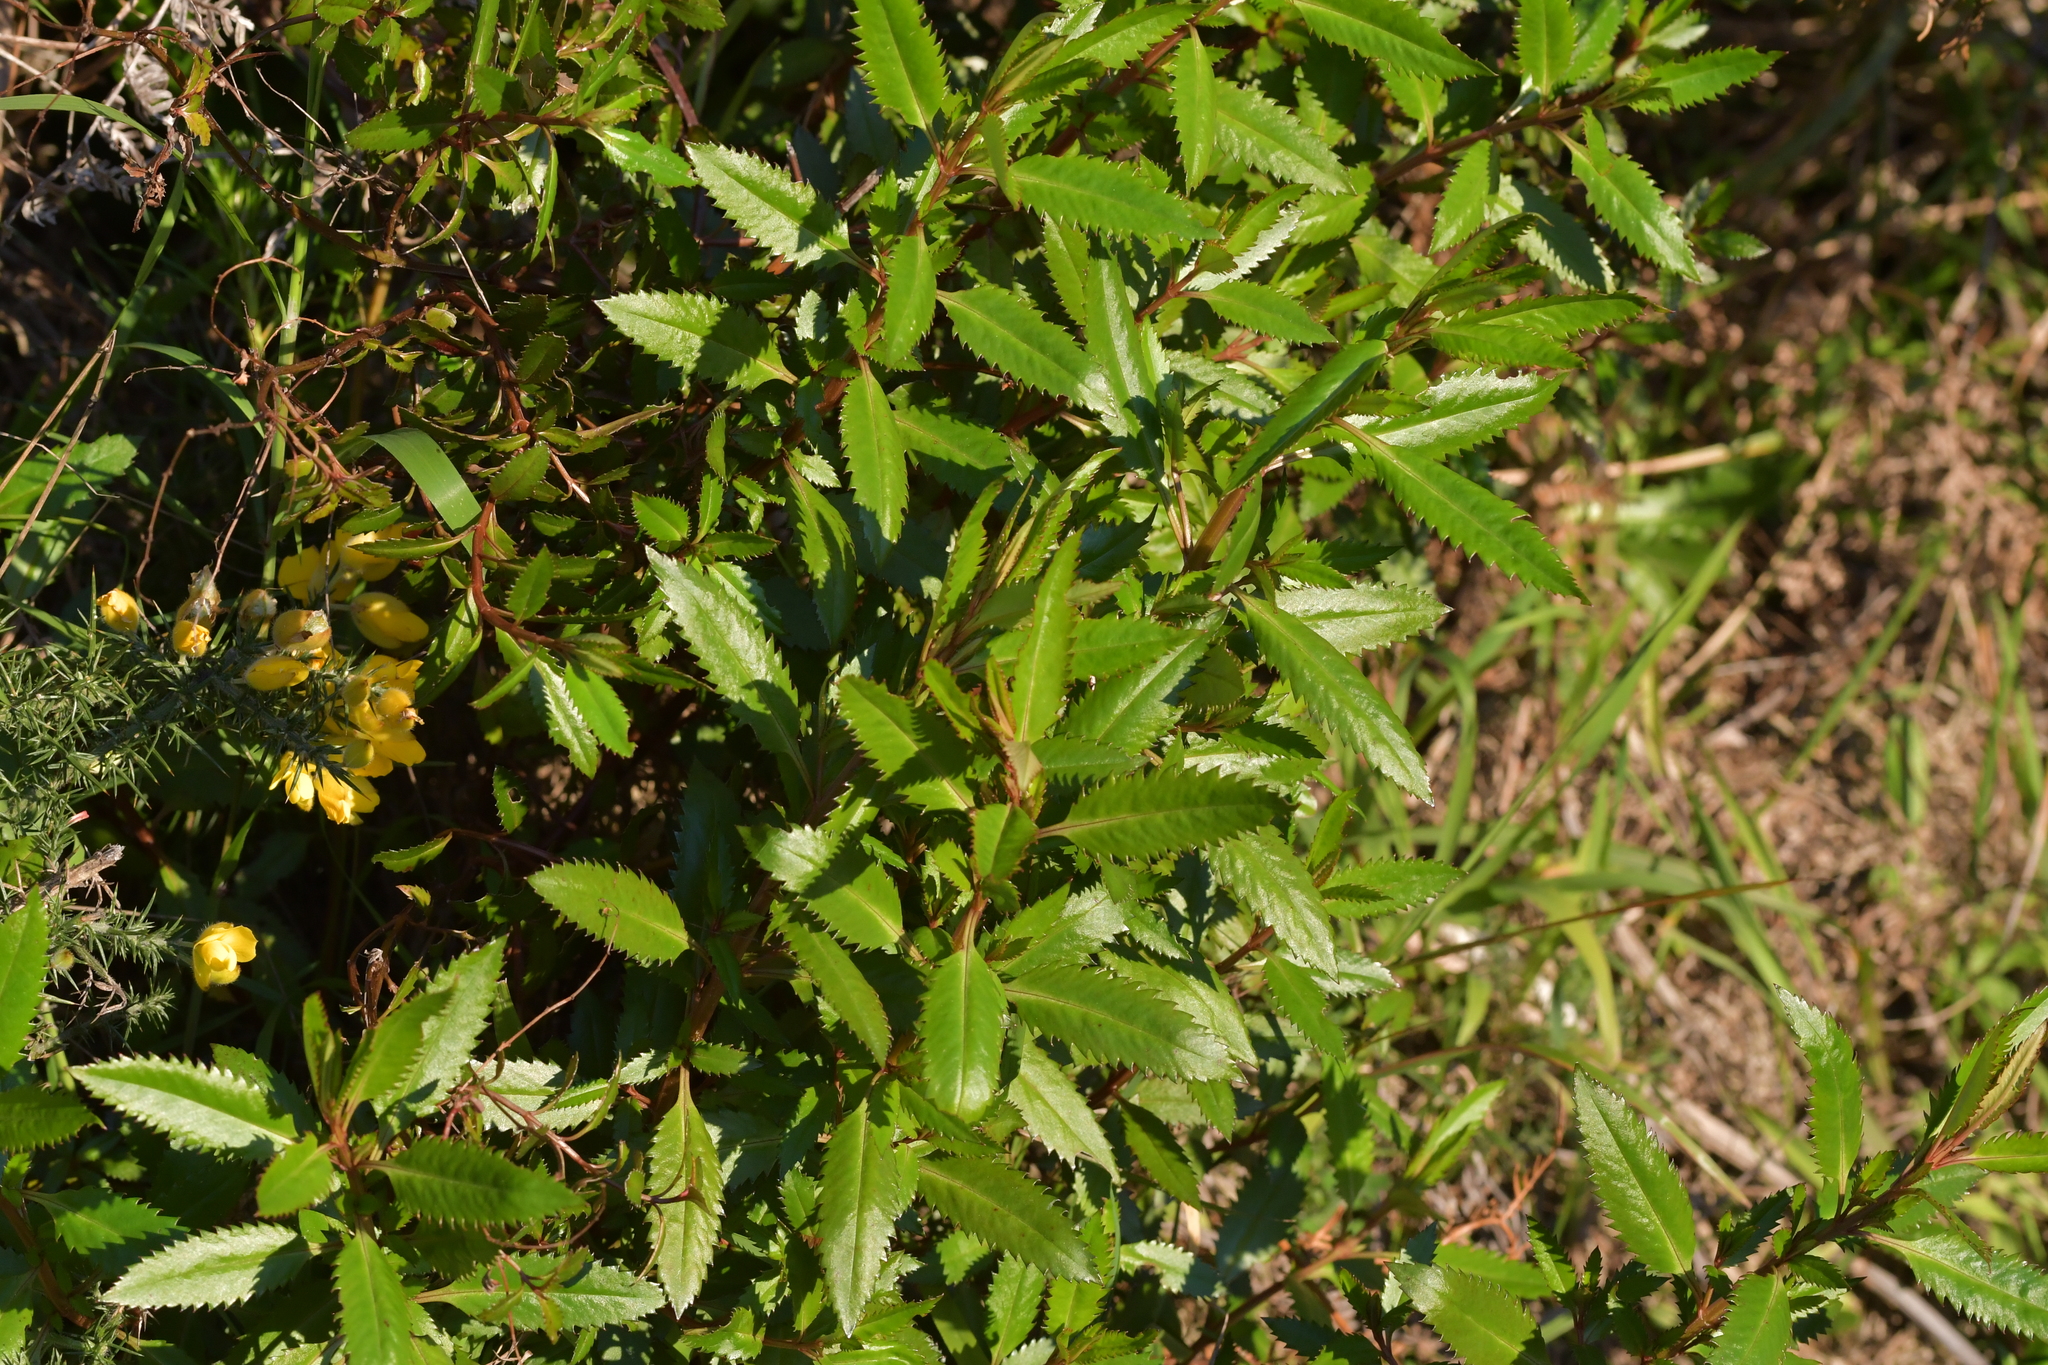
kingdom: Plantae
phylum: Tracheophyta
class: Magnoliopsida
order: Saxifragales
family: Haloragaceae
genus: Haloragis
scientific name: Haloragis erecta
